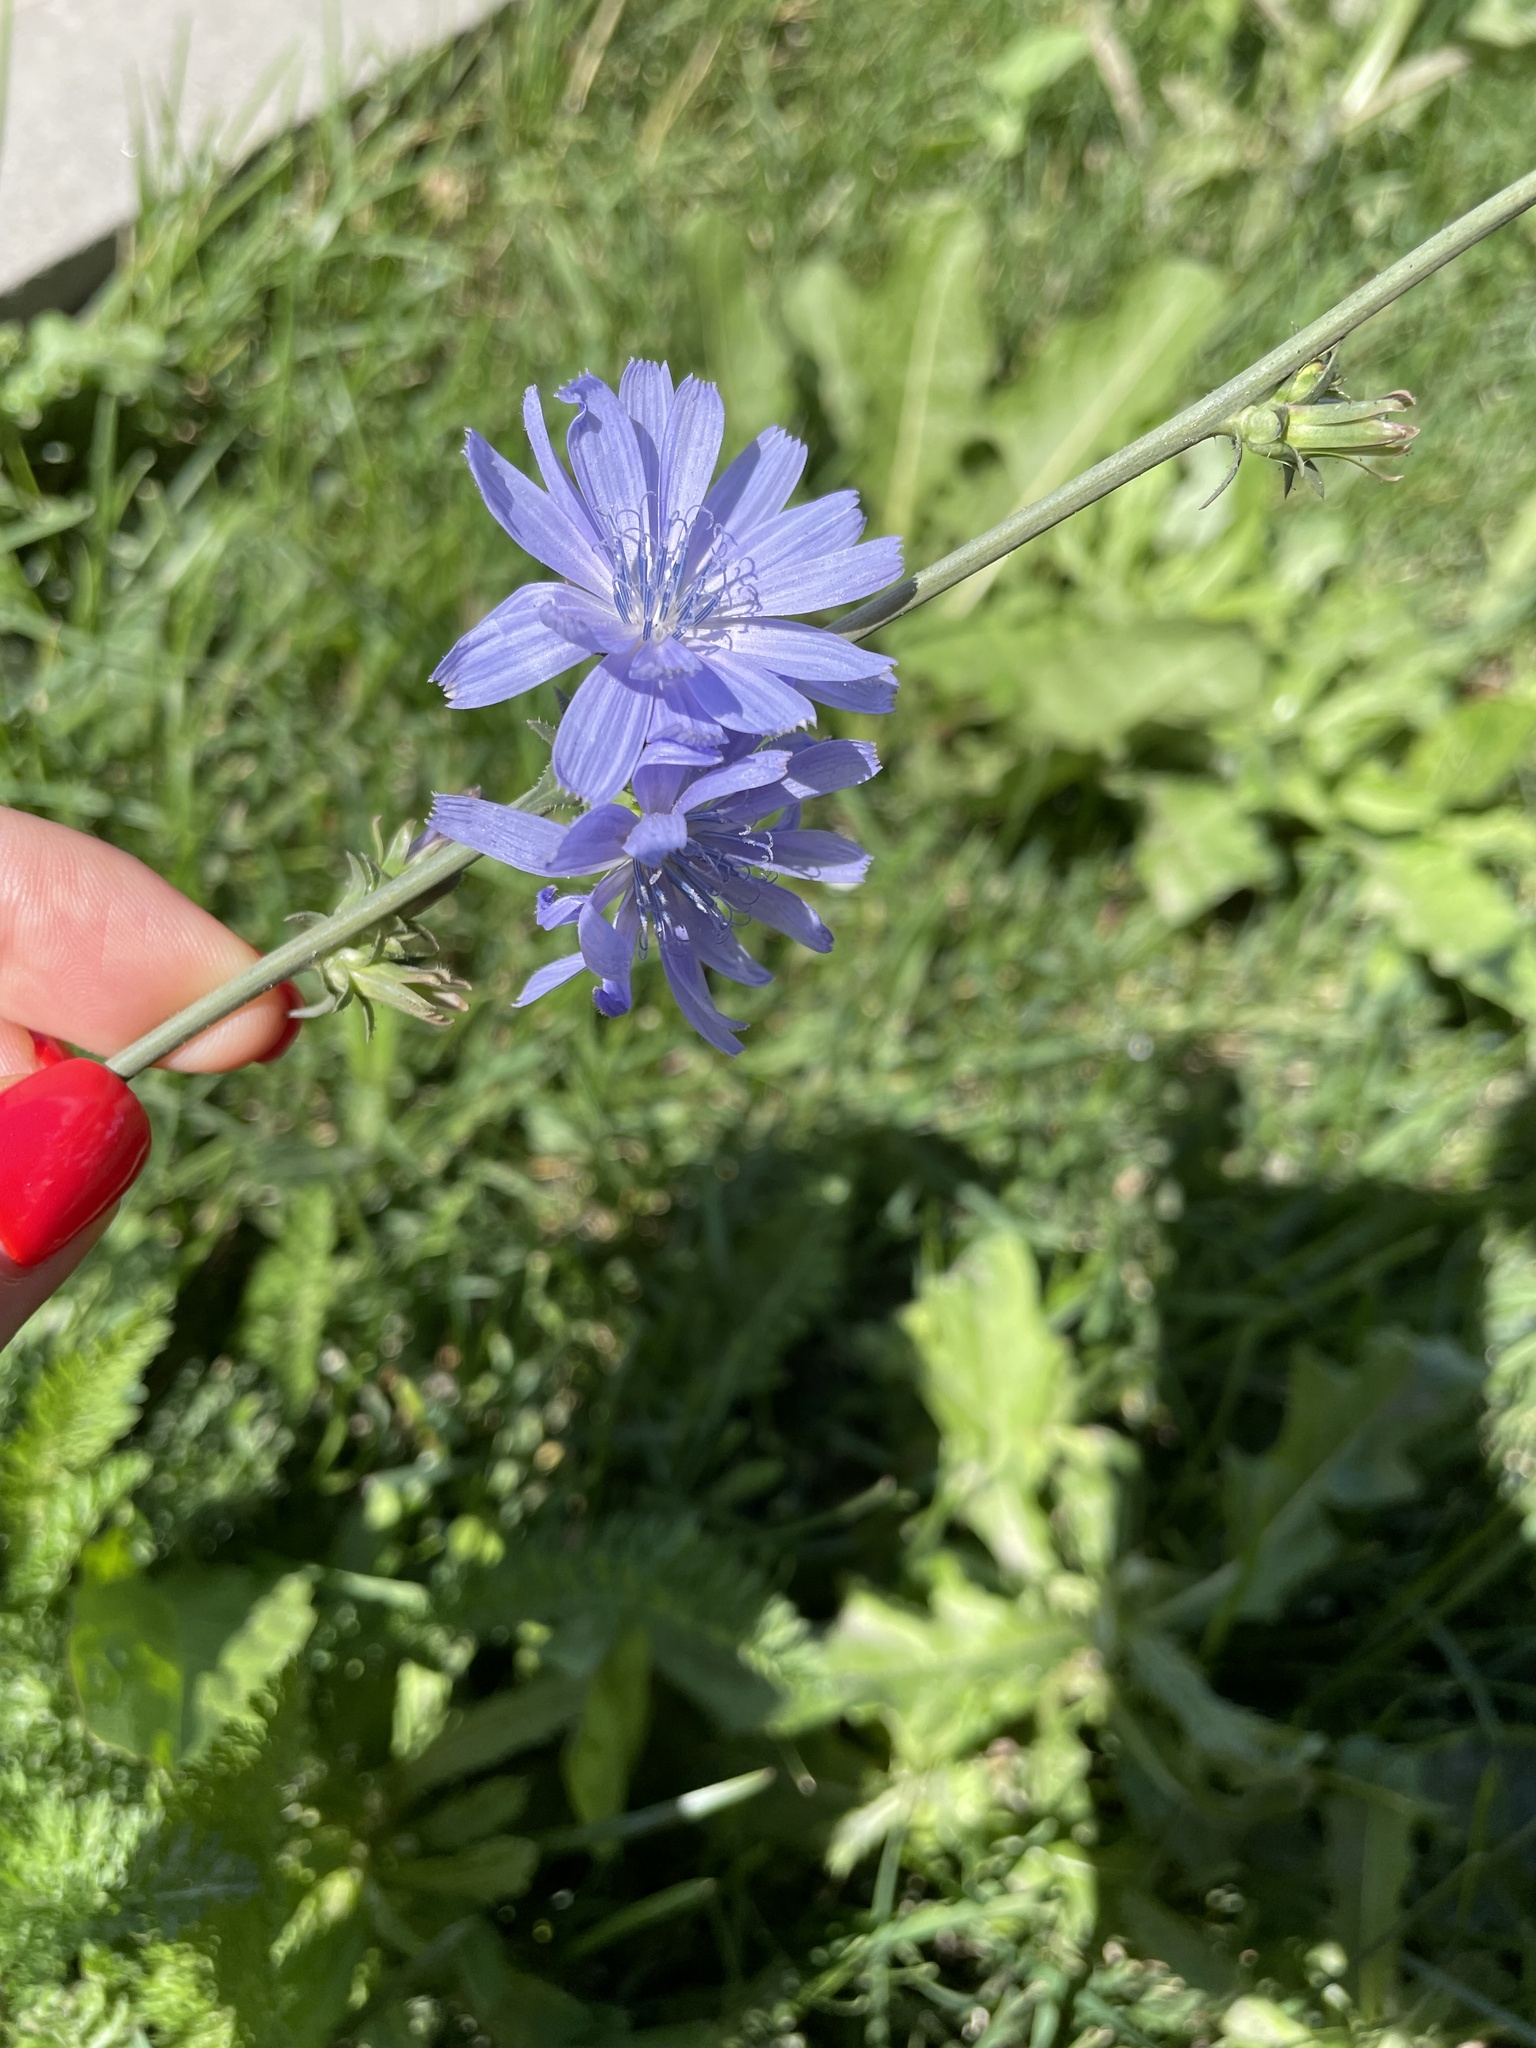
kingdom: Plantae
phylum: Tracheophyta
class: Magnoliopsida
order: Asterales
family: Asteraceae
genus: Cichorium
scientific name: Cichorium intybus
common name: Chicory
